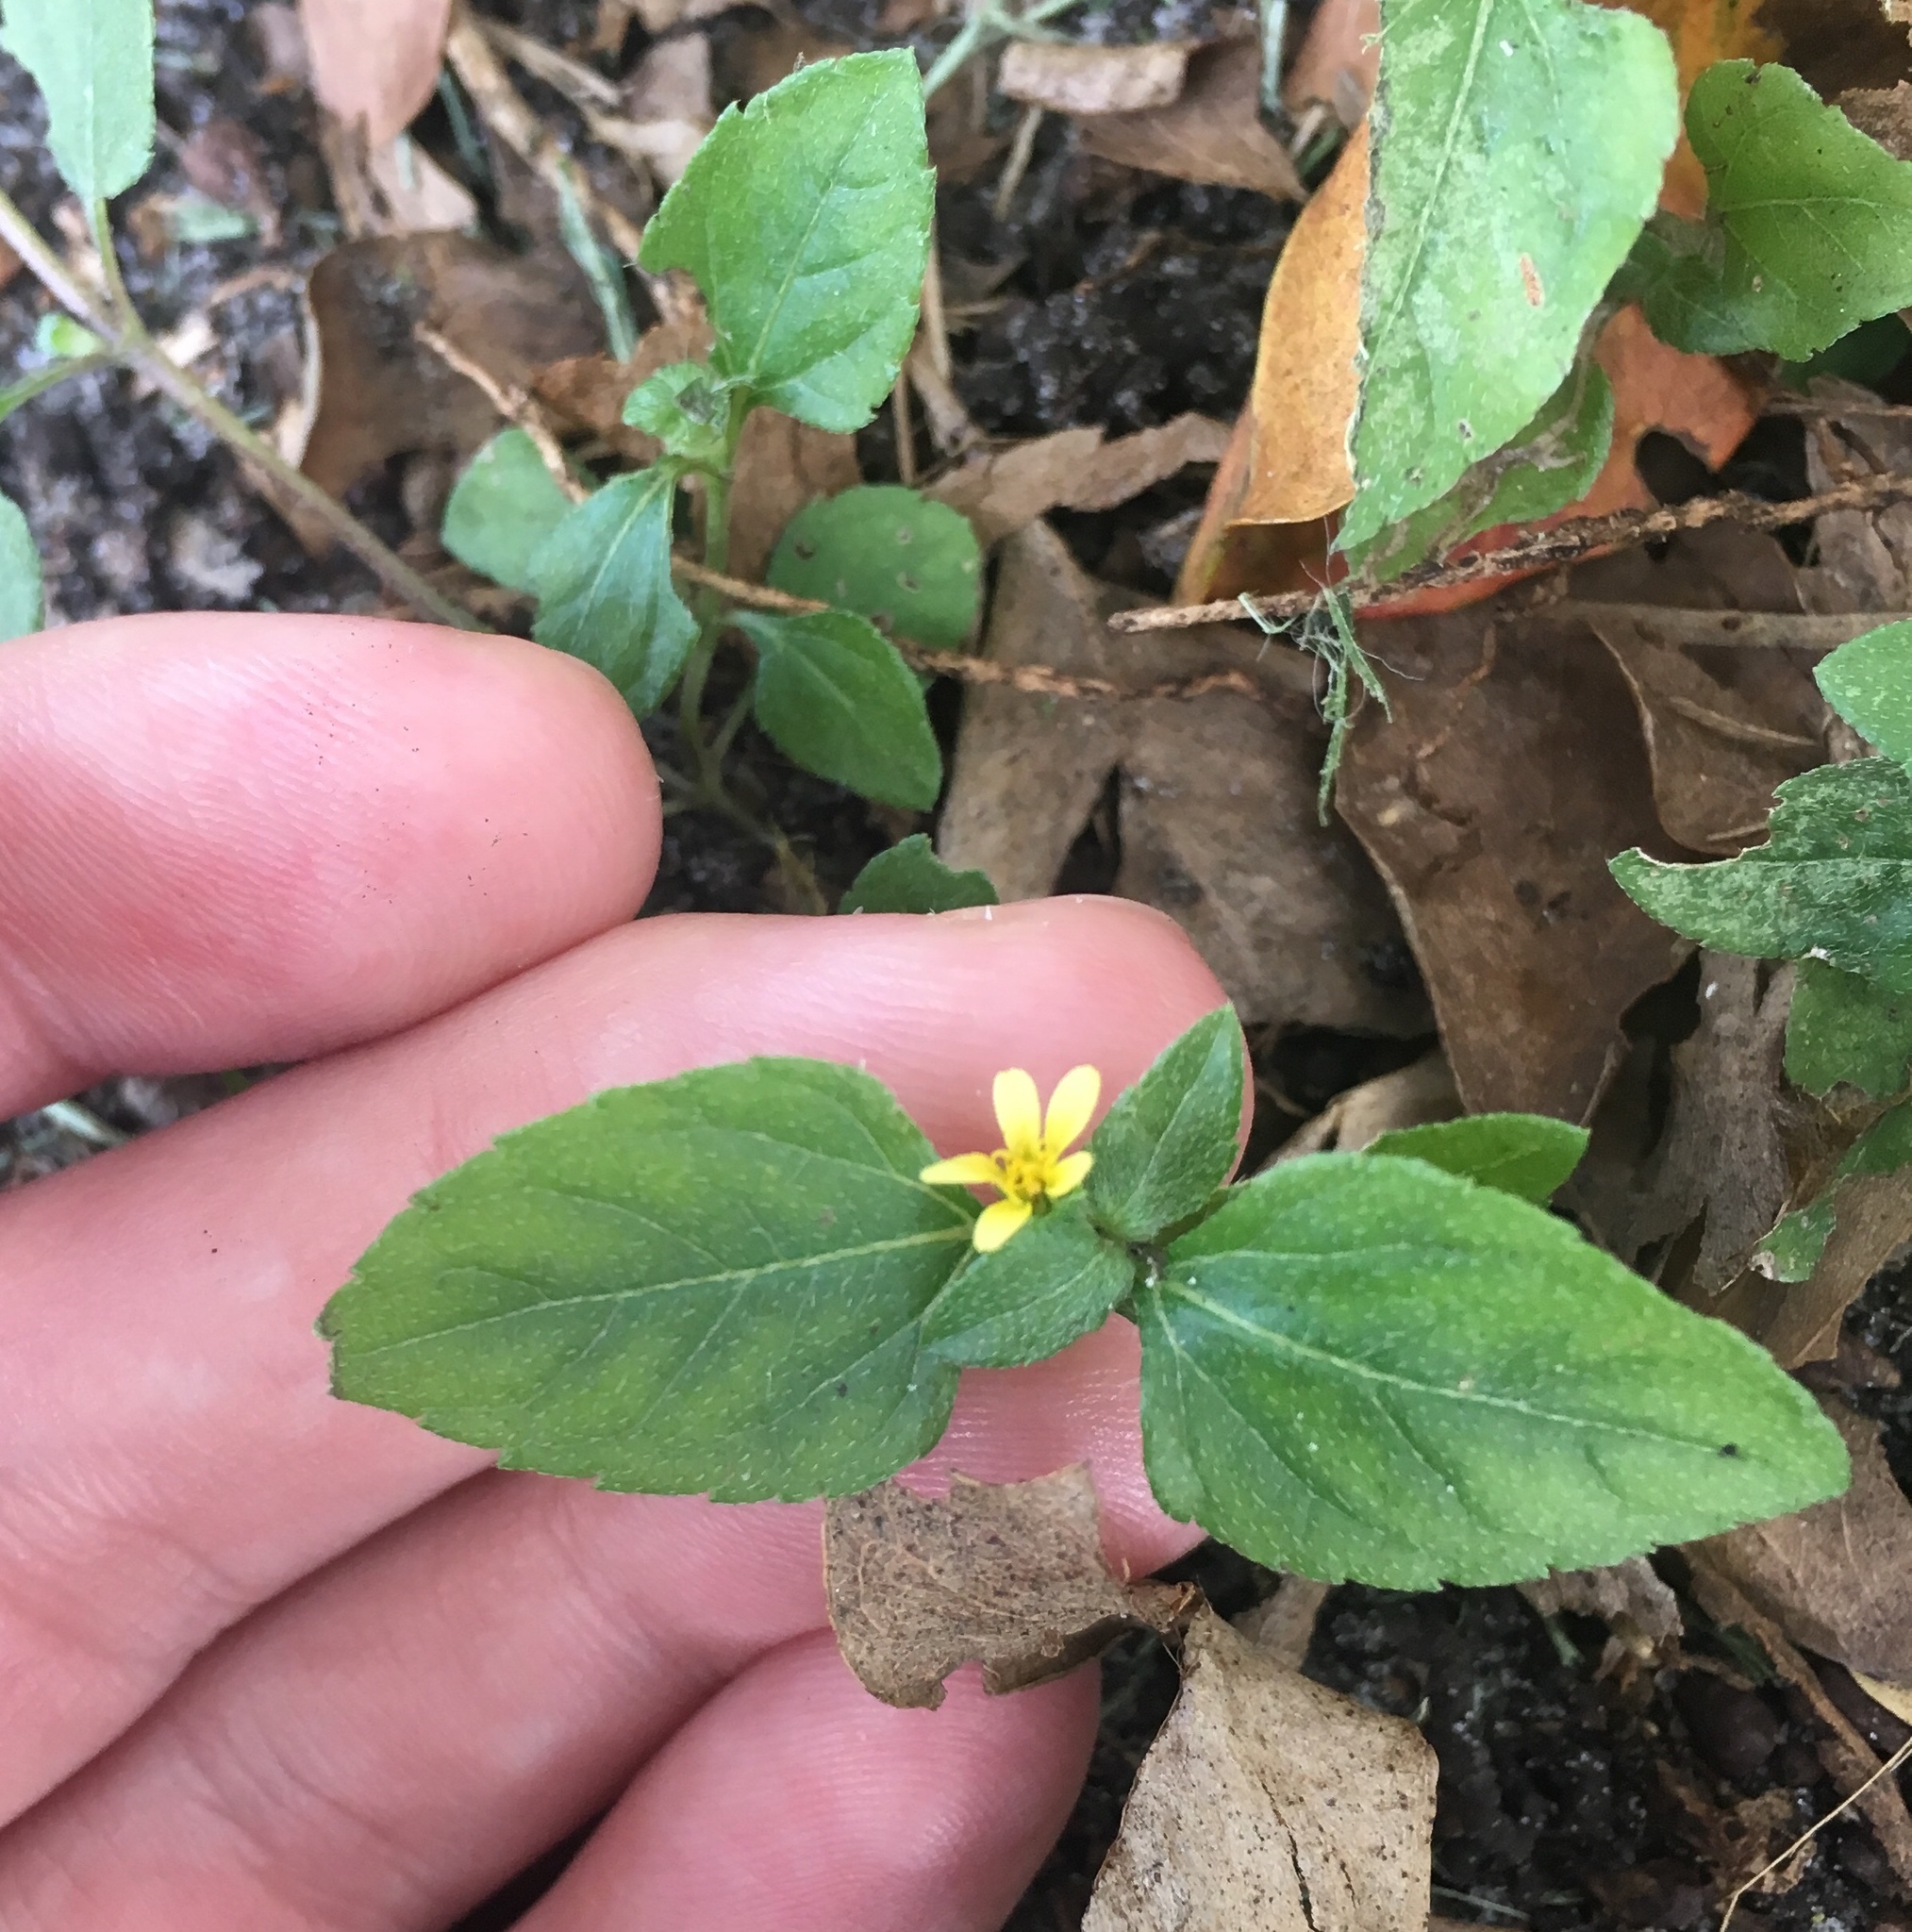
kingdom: Plantae
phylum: Tracheophyta
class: Magnoliopsida
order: Asterales
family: Asteraceae
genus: Calyptocarpus
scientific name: Calyptocarpus vialis
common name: Straggler daisy
